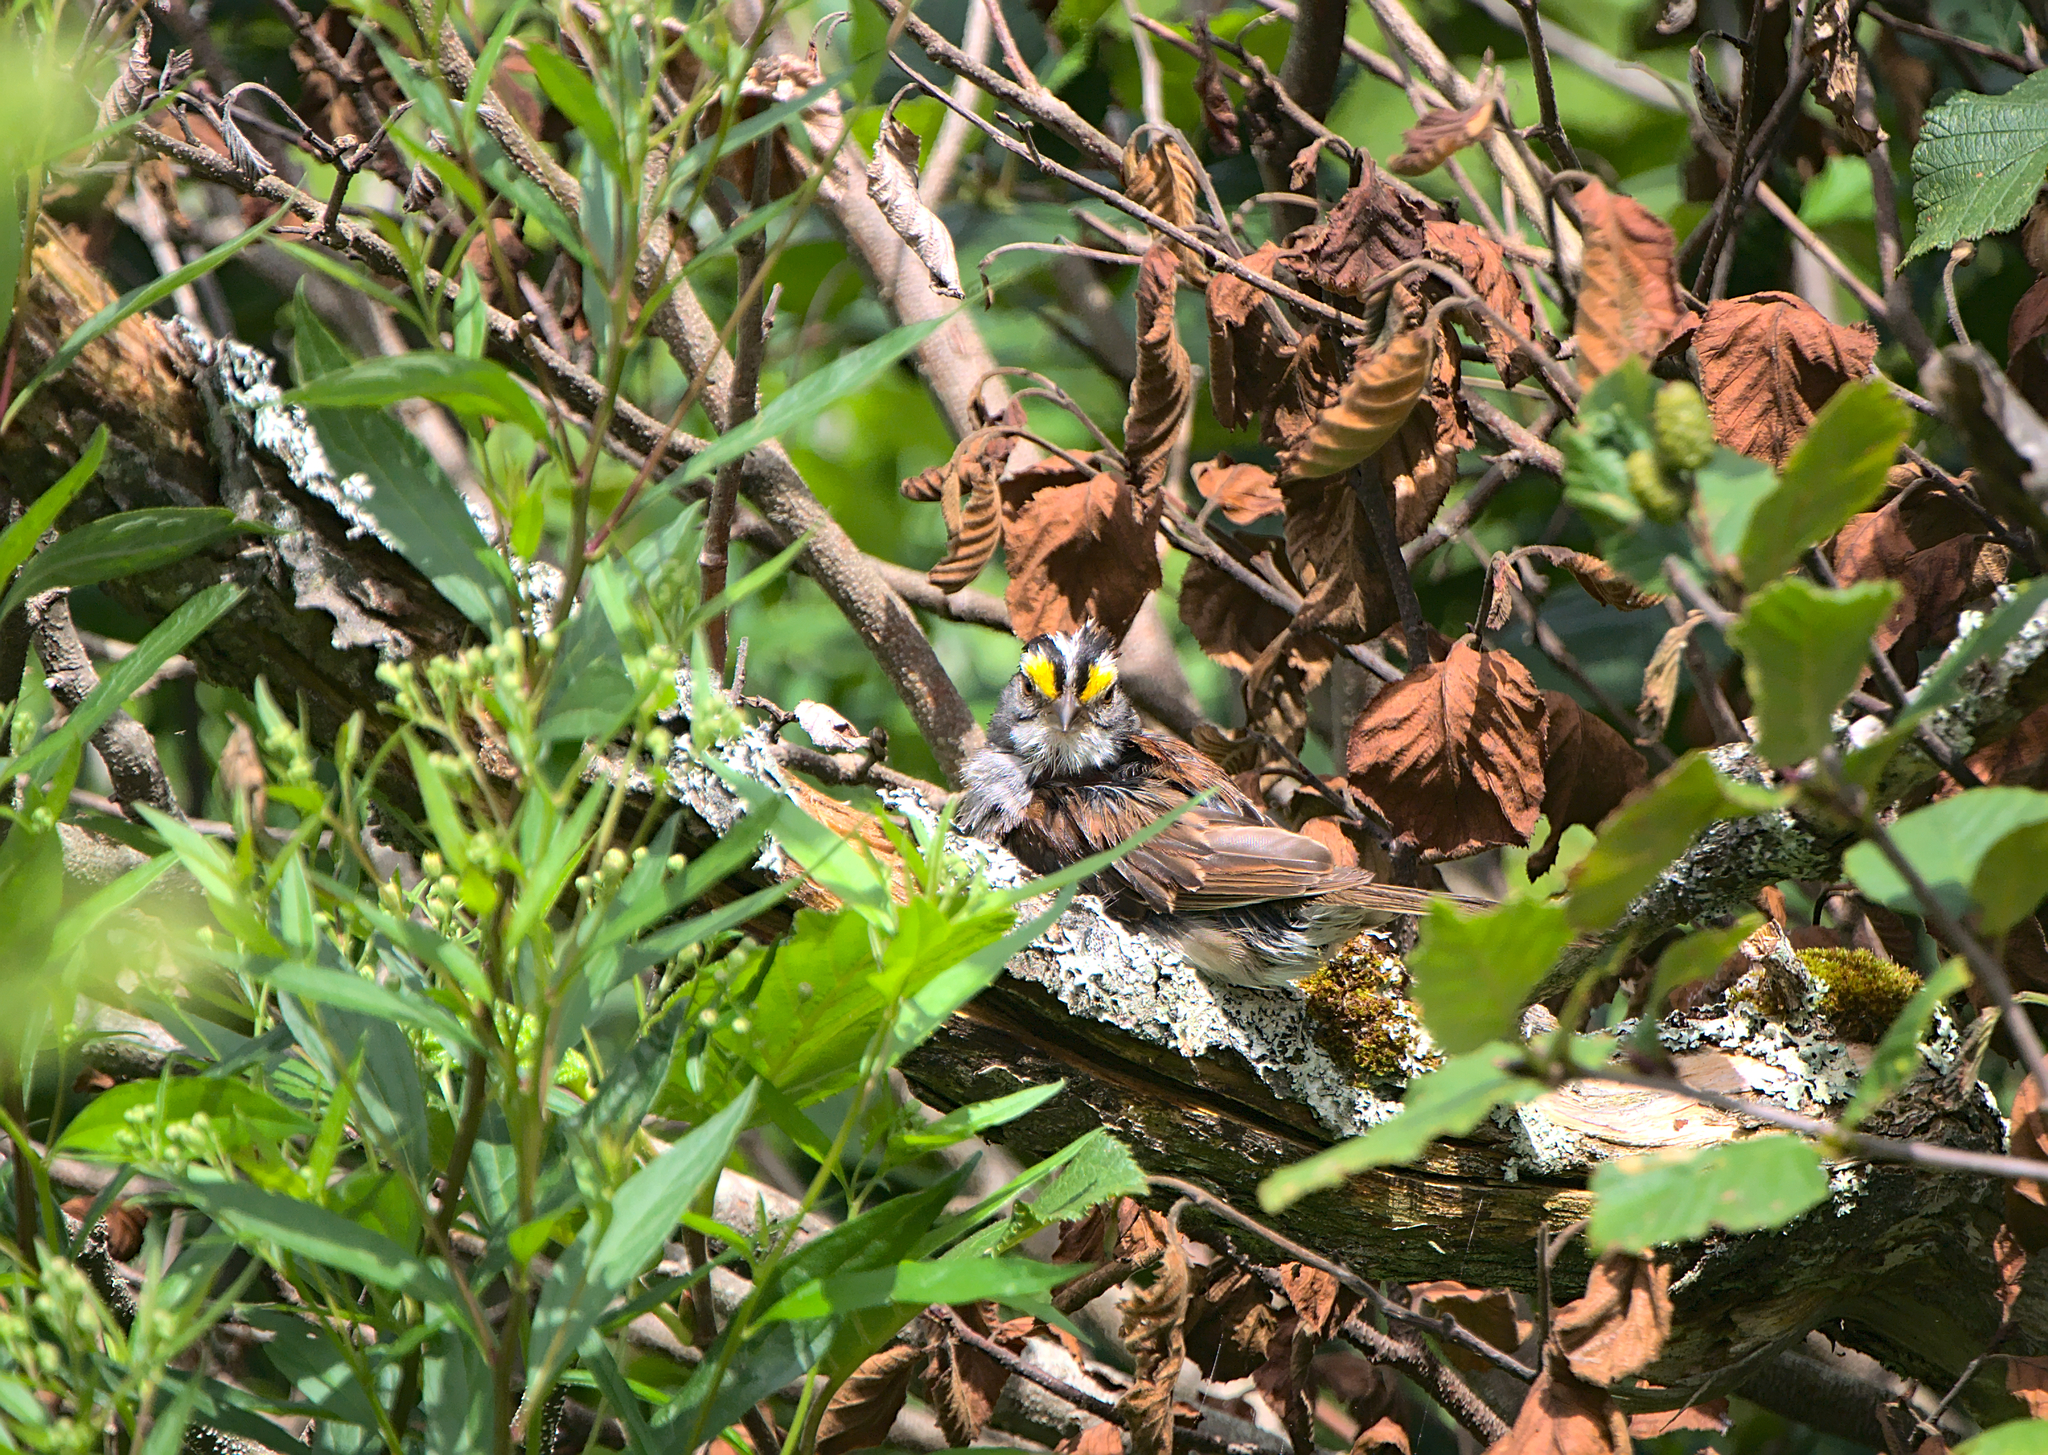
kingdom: Animalia
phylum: Chordata
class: Aves
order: Passeriformes
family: Passerellidae
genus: Zonotrichia
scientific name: Zonotrichia albicollis
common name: White-throated sparrow
